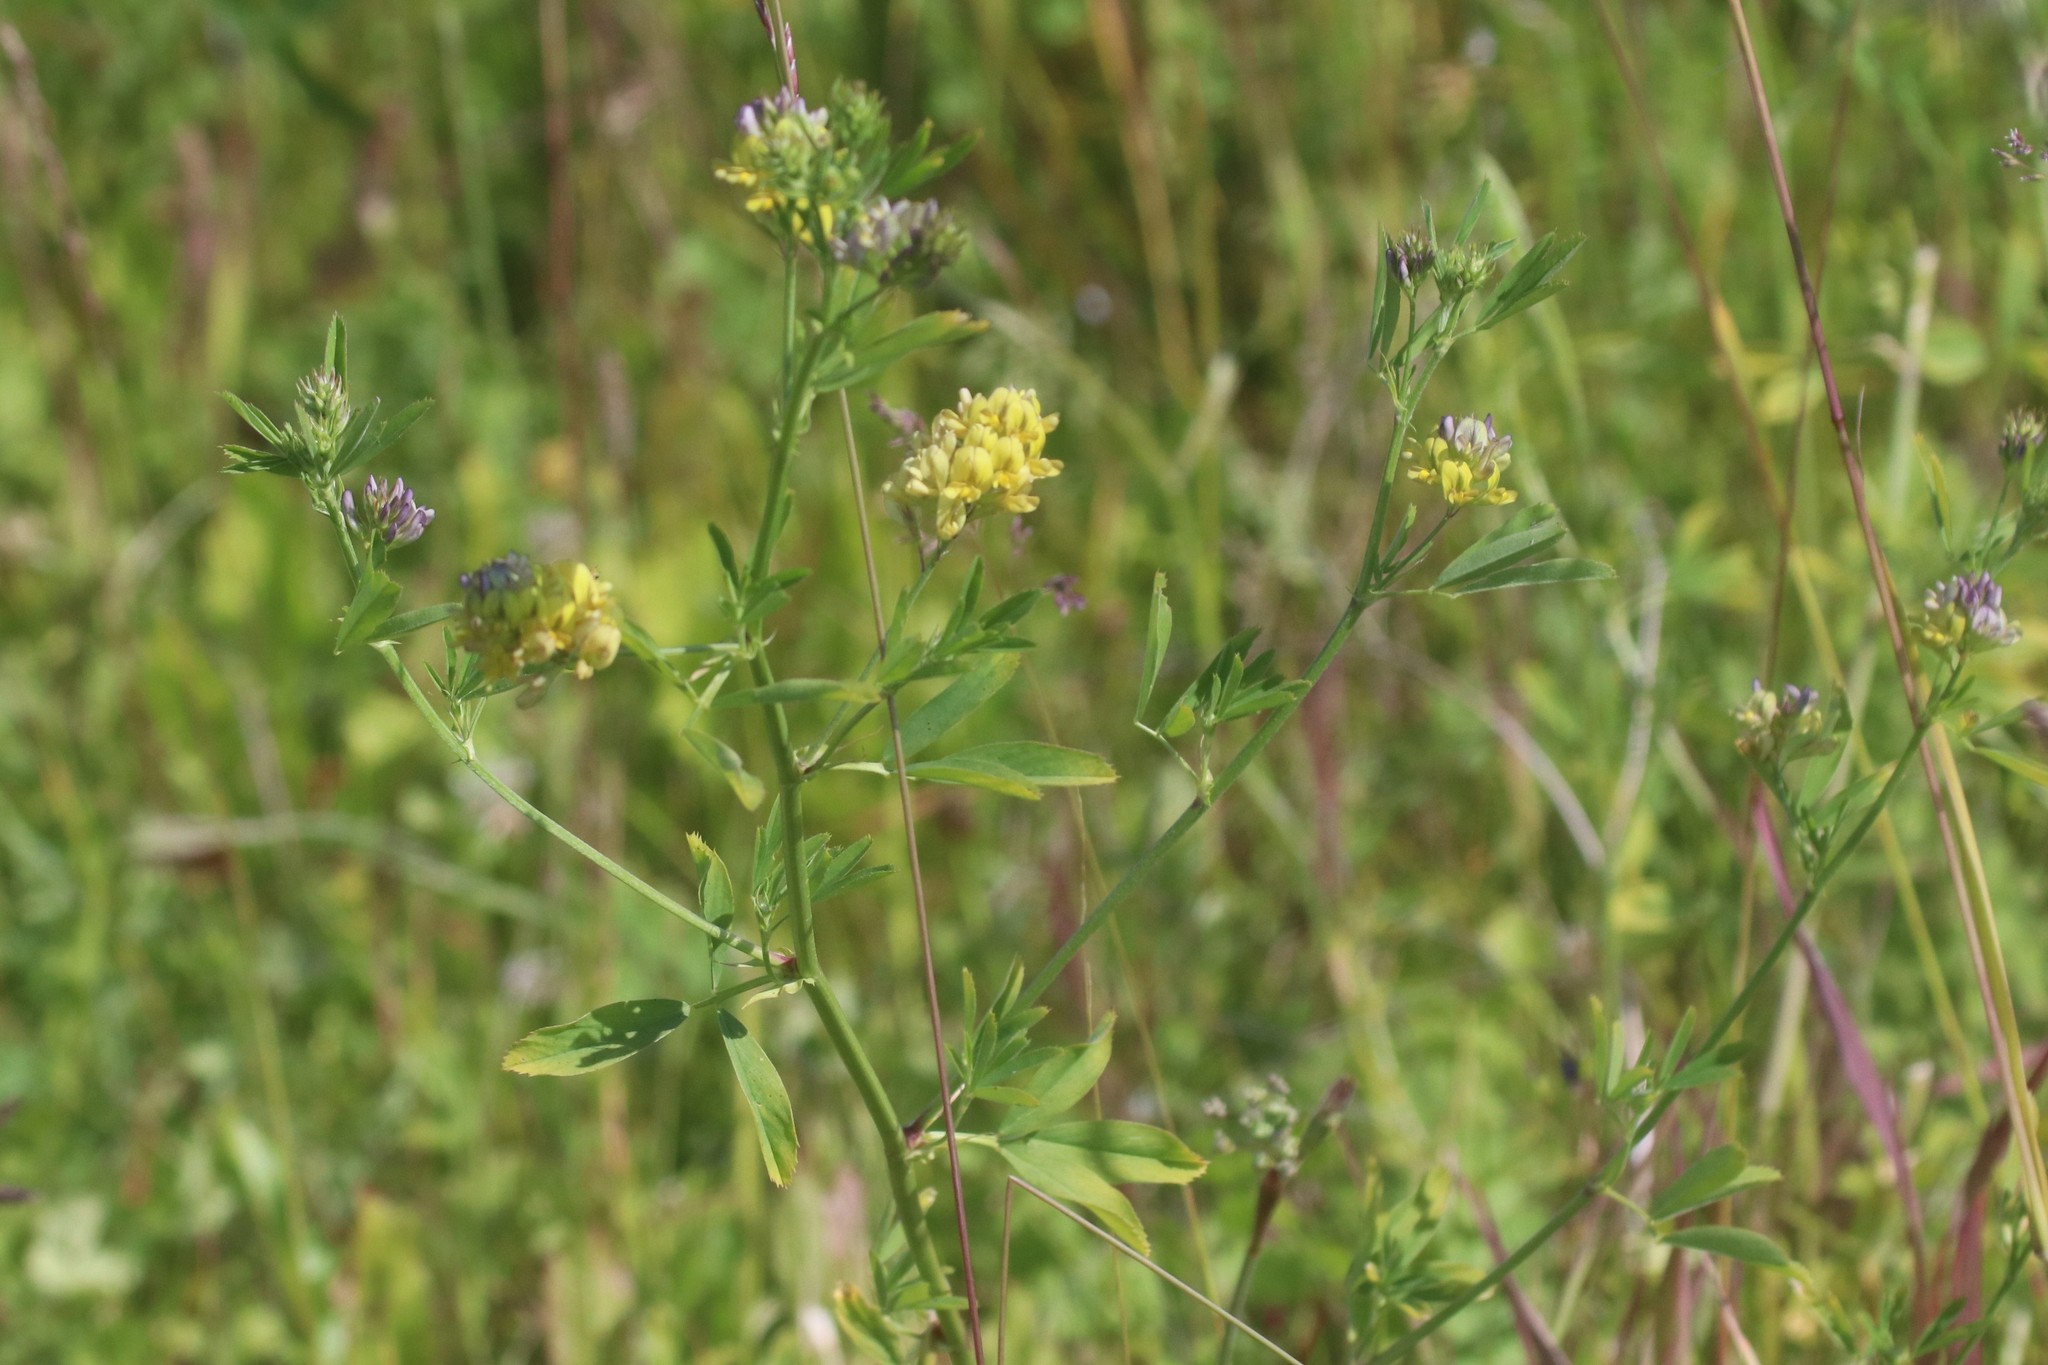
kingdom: Plantae
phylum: Tracheophyta
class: Magnoliopsida
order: Fabales
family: Fabaceae
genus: Medicago
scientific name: Medicago varia
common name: Sand lucerne
